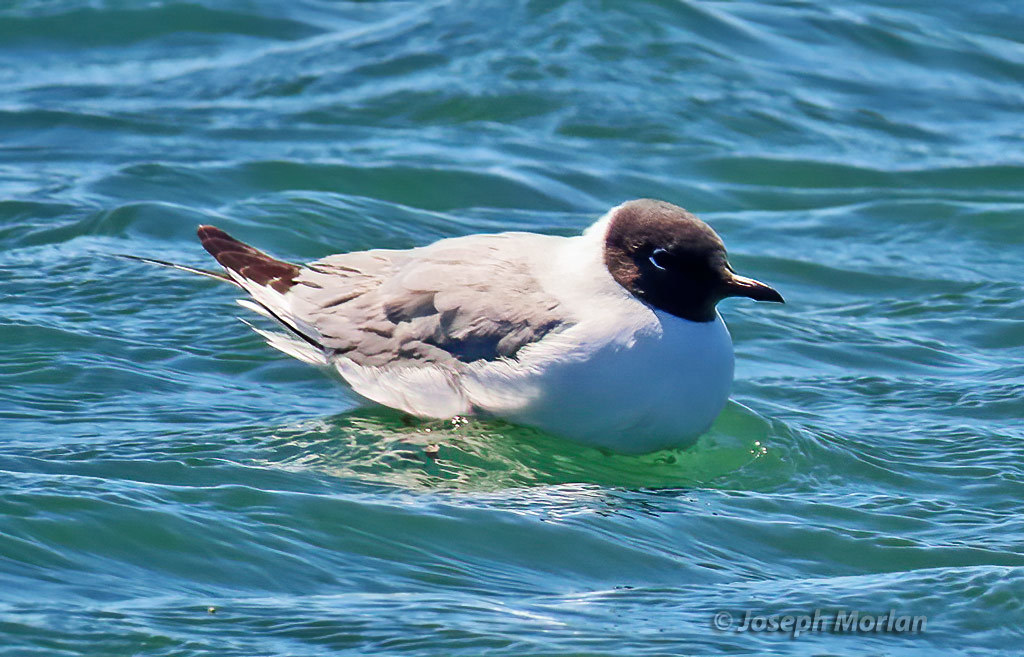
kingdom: Animalia
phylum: Chordata
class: Aves
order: Charadriiformes
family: Laridae
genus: Chroicocephalus
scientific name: Chroicocephalus philadelphia
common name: Bonaparte's gull
